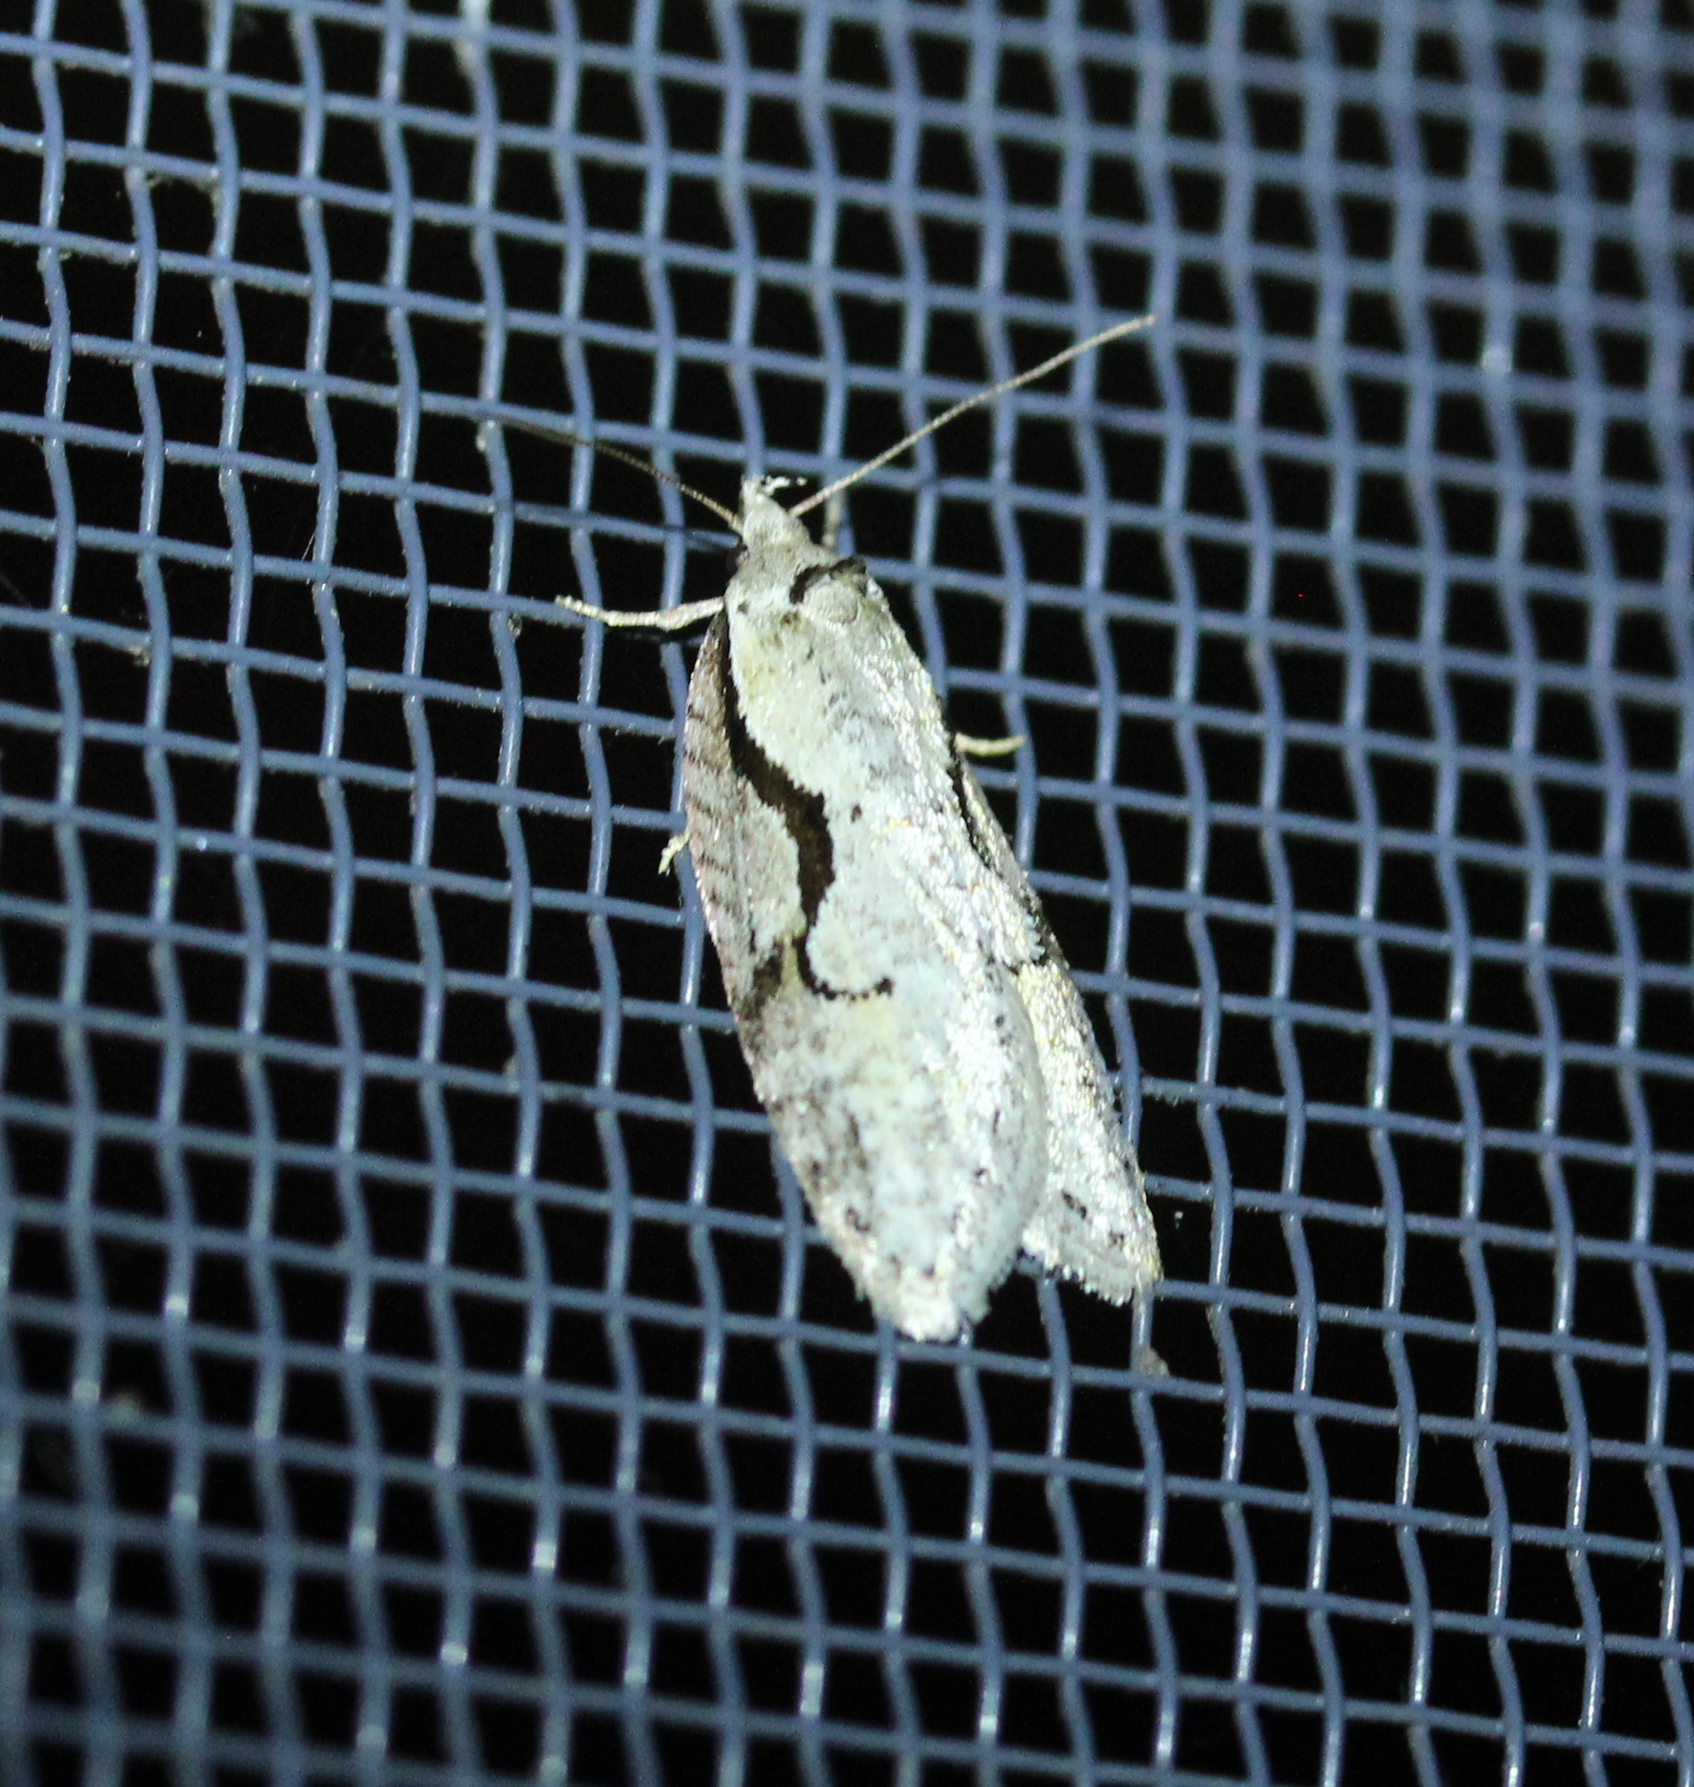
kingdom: Animalia
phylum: Arthropoda
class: Insecta
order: Lepidoptera
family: Depressariidae
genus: Semioscopis
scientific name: Semioscopis packardella
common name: Packard's concealer moth
